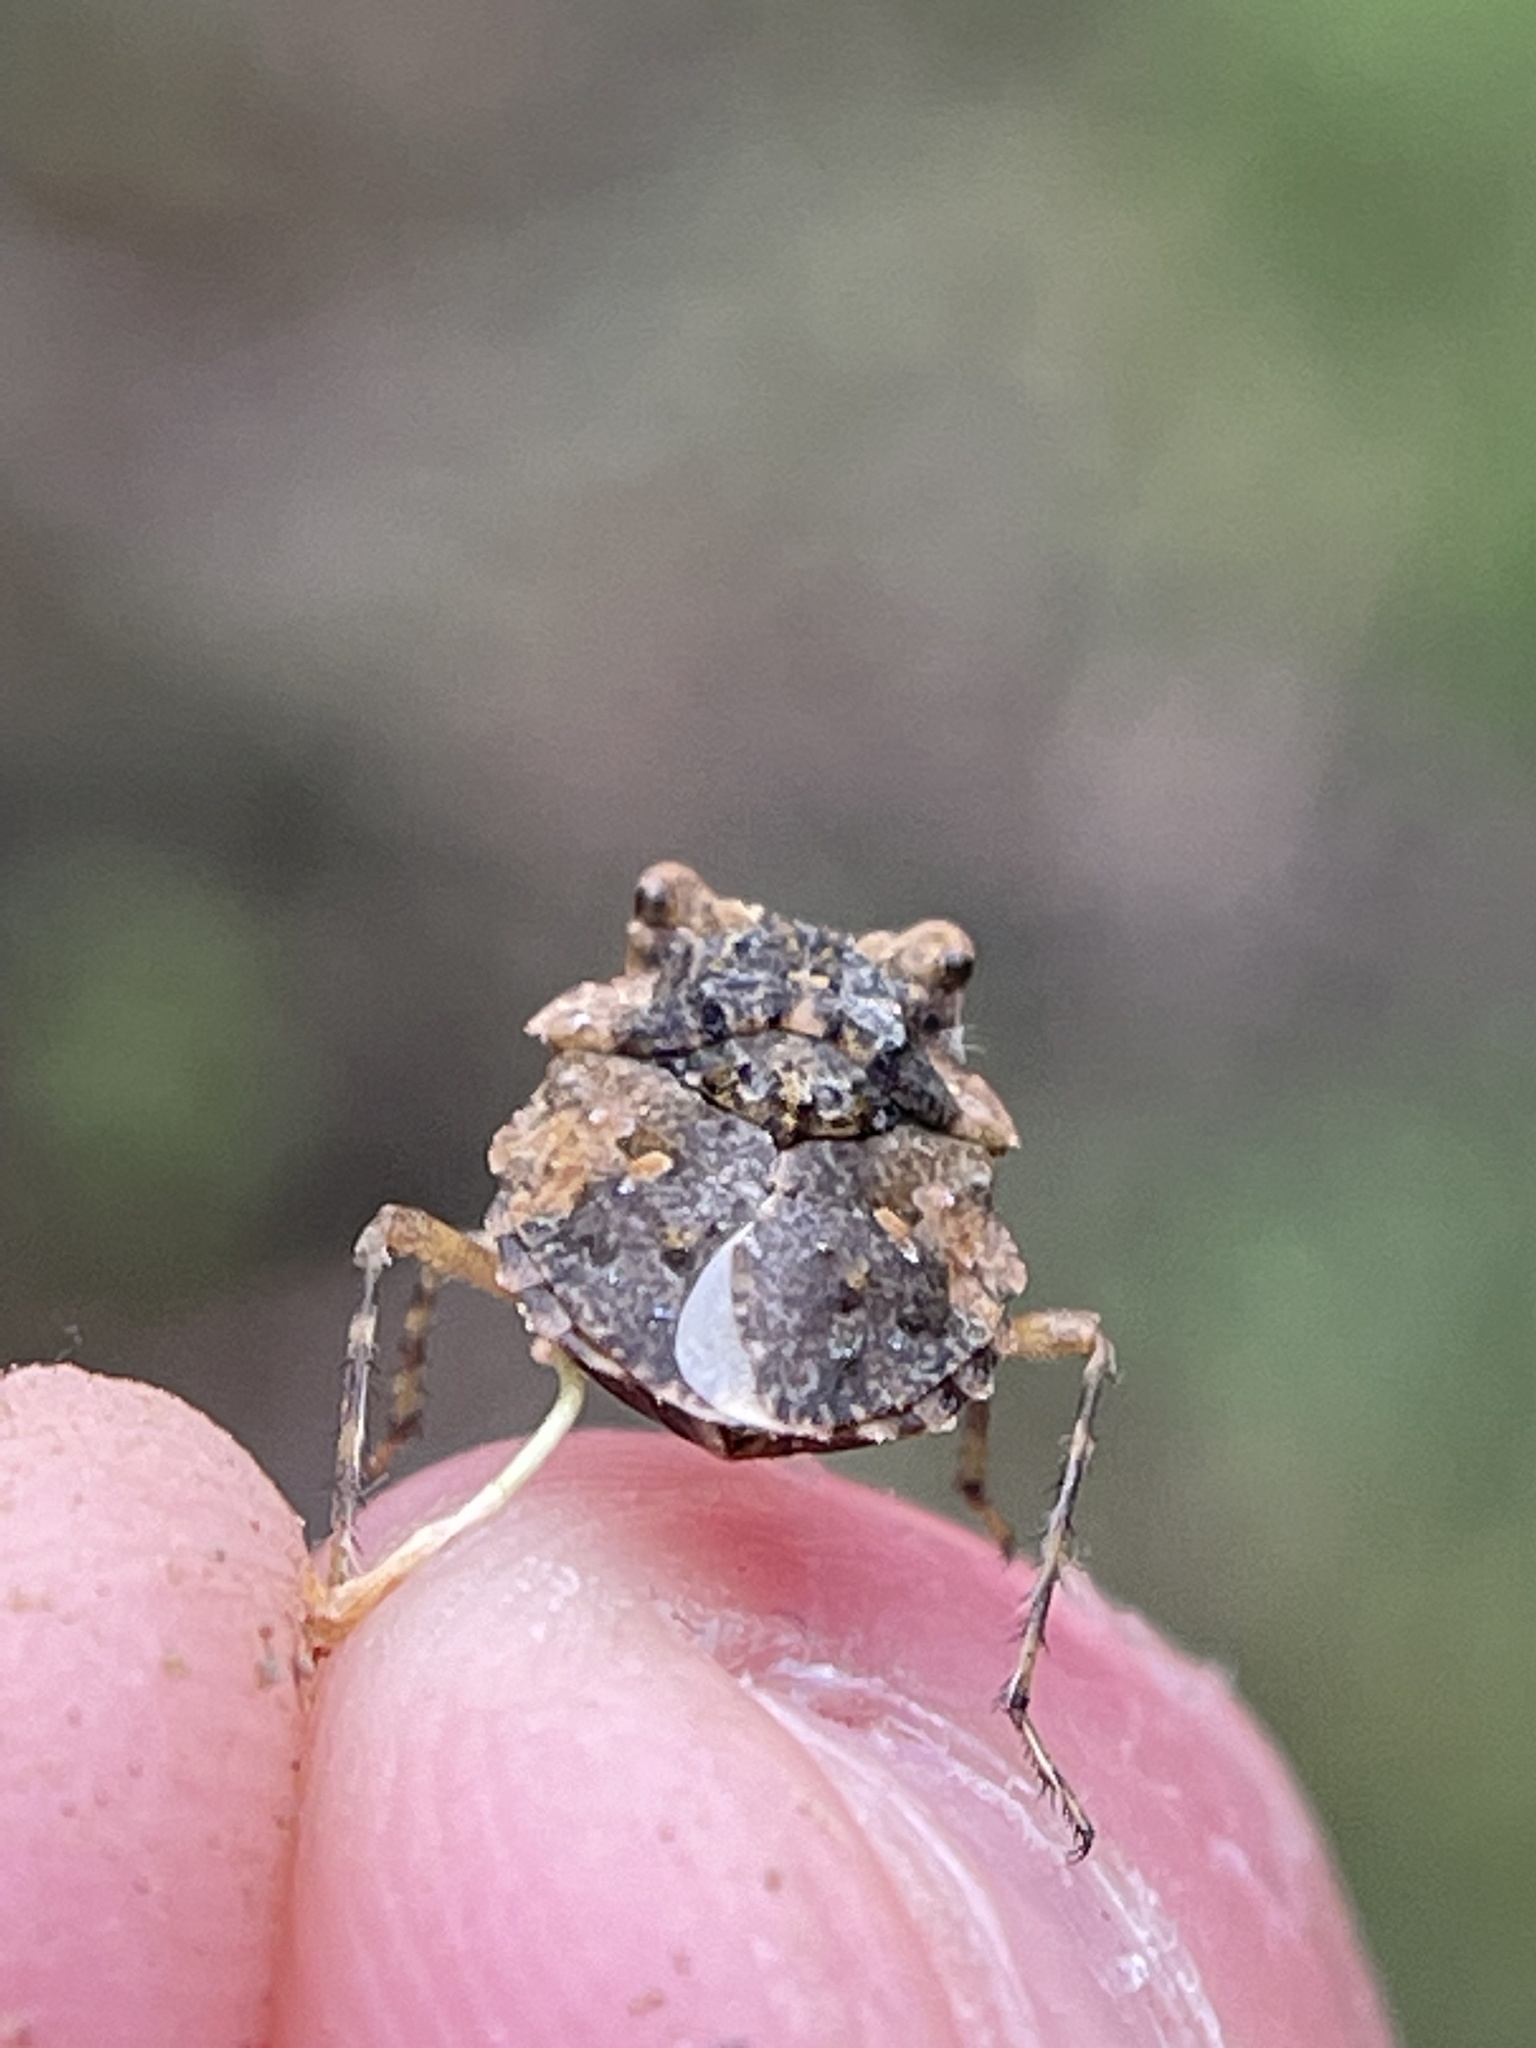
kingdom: Animalia
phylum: Arthropoda
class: Insecta
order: Hemiptera
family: Gelastocoridae
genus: Gelastocoris
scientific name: Gelastocoris oculatus
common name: Toad bug
